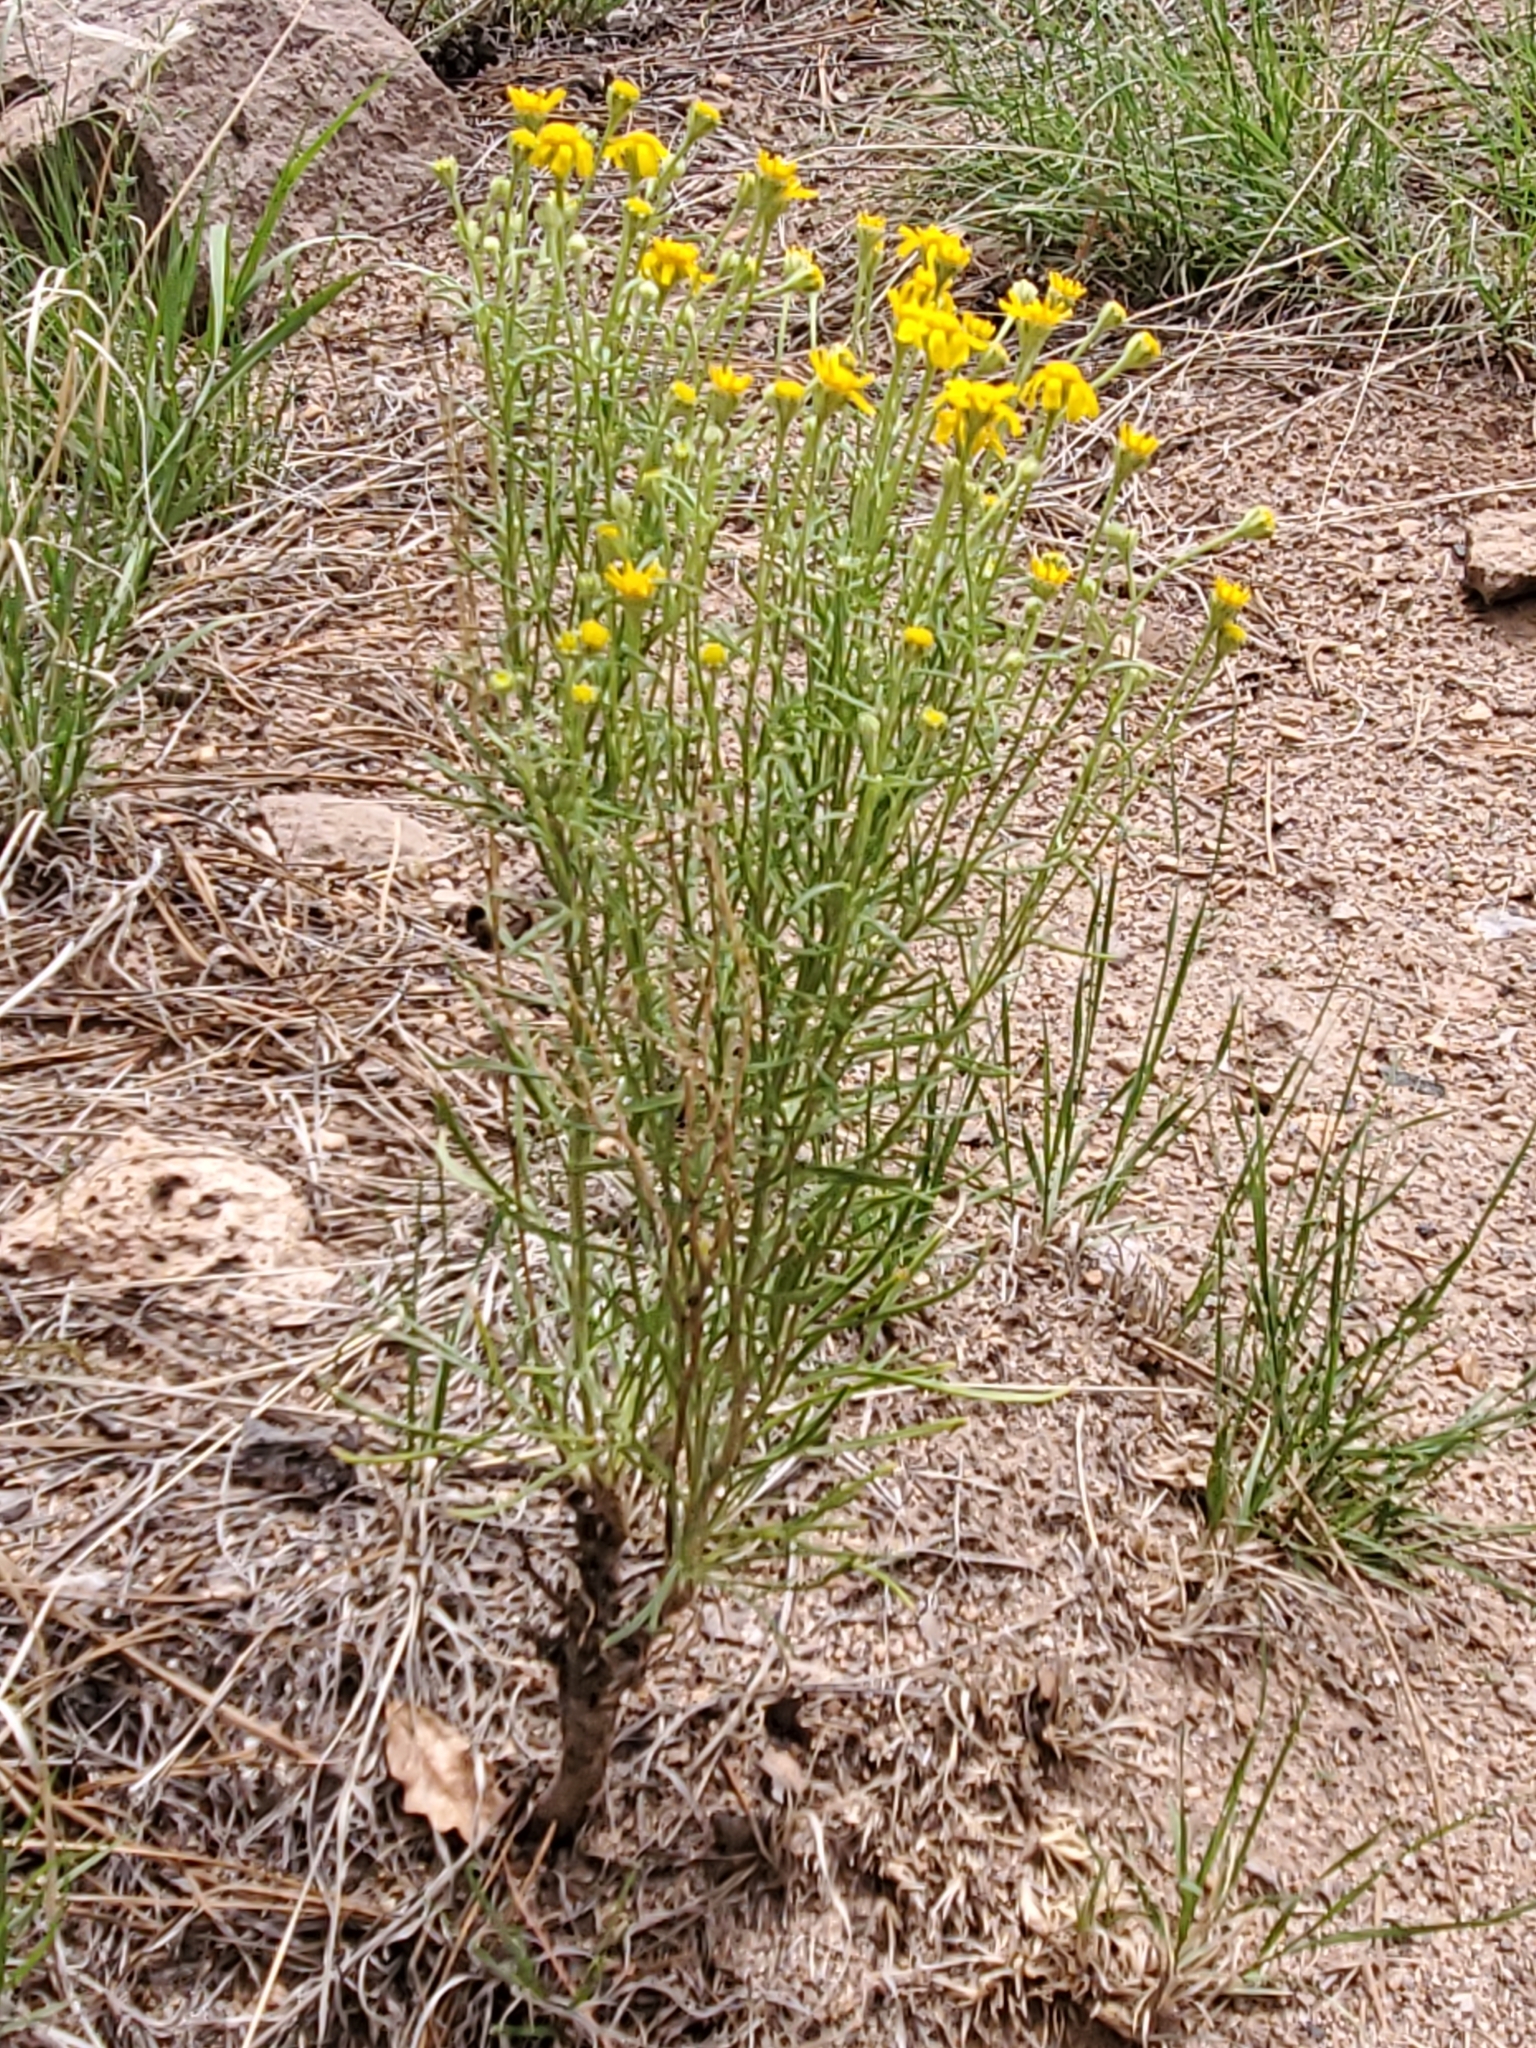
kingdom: Plantae
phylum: Tracheophyta
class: Magnoliopsida
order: Asterales
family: Asteraceae
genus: Hymenoxys
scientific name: Hymenoxys richardsonii
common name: Pingue rubberweed
